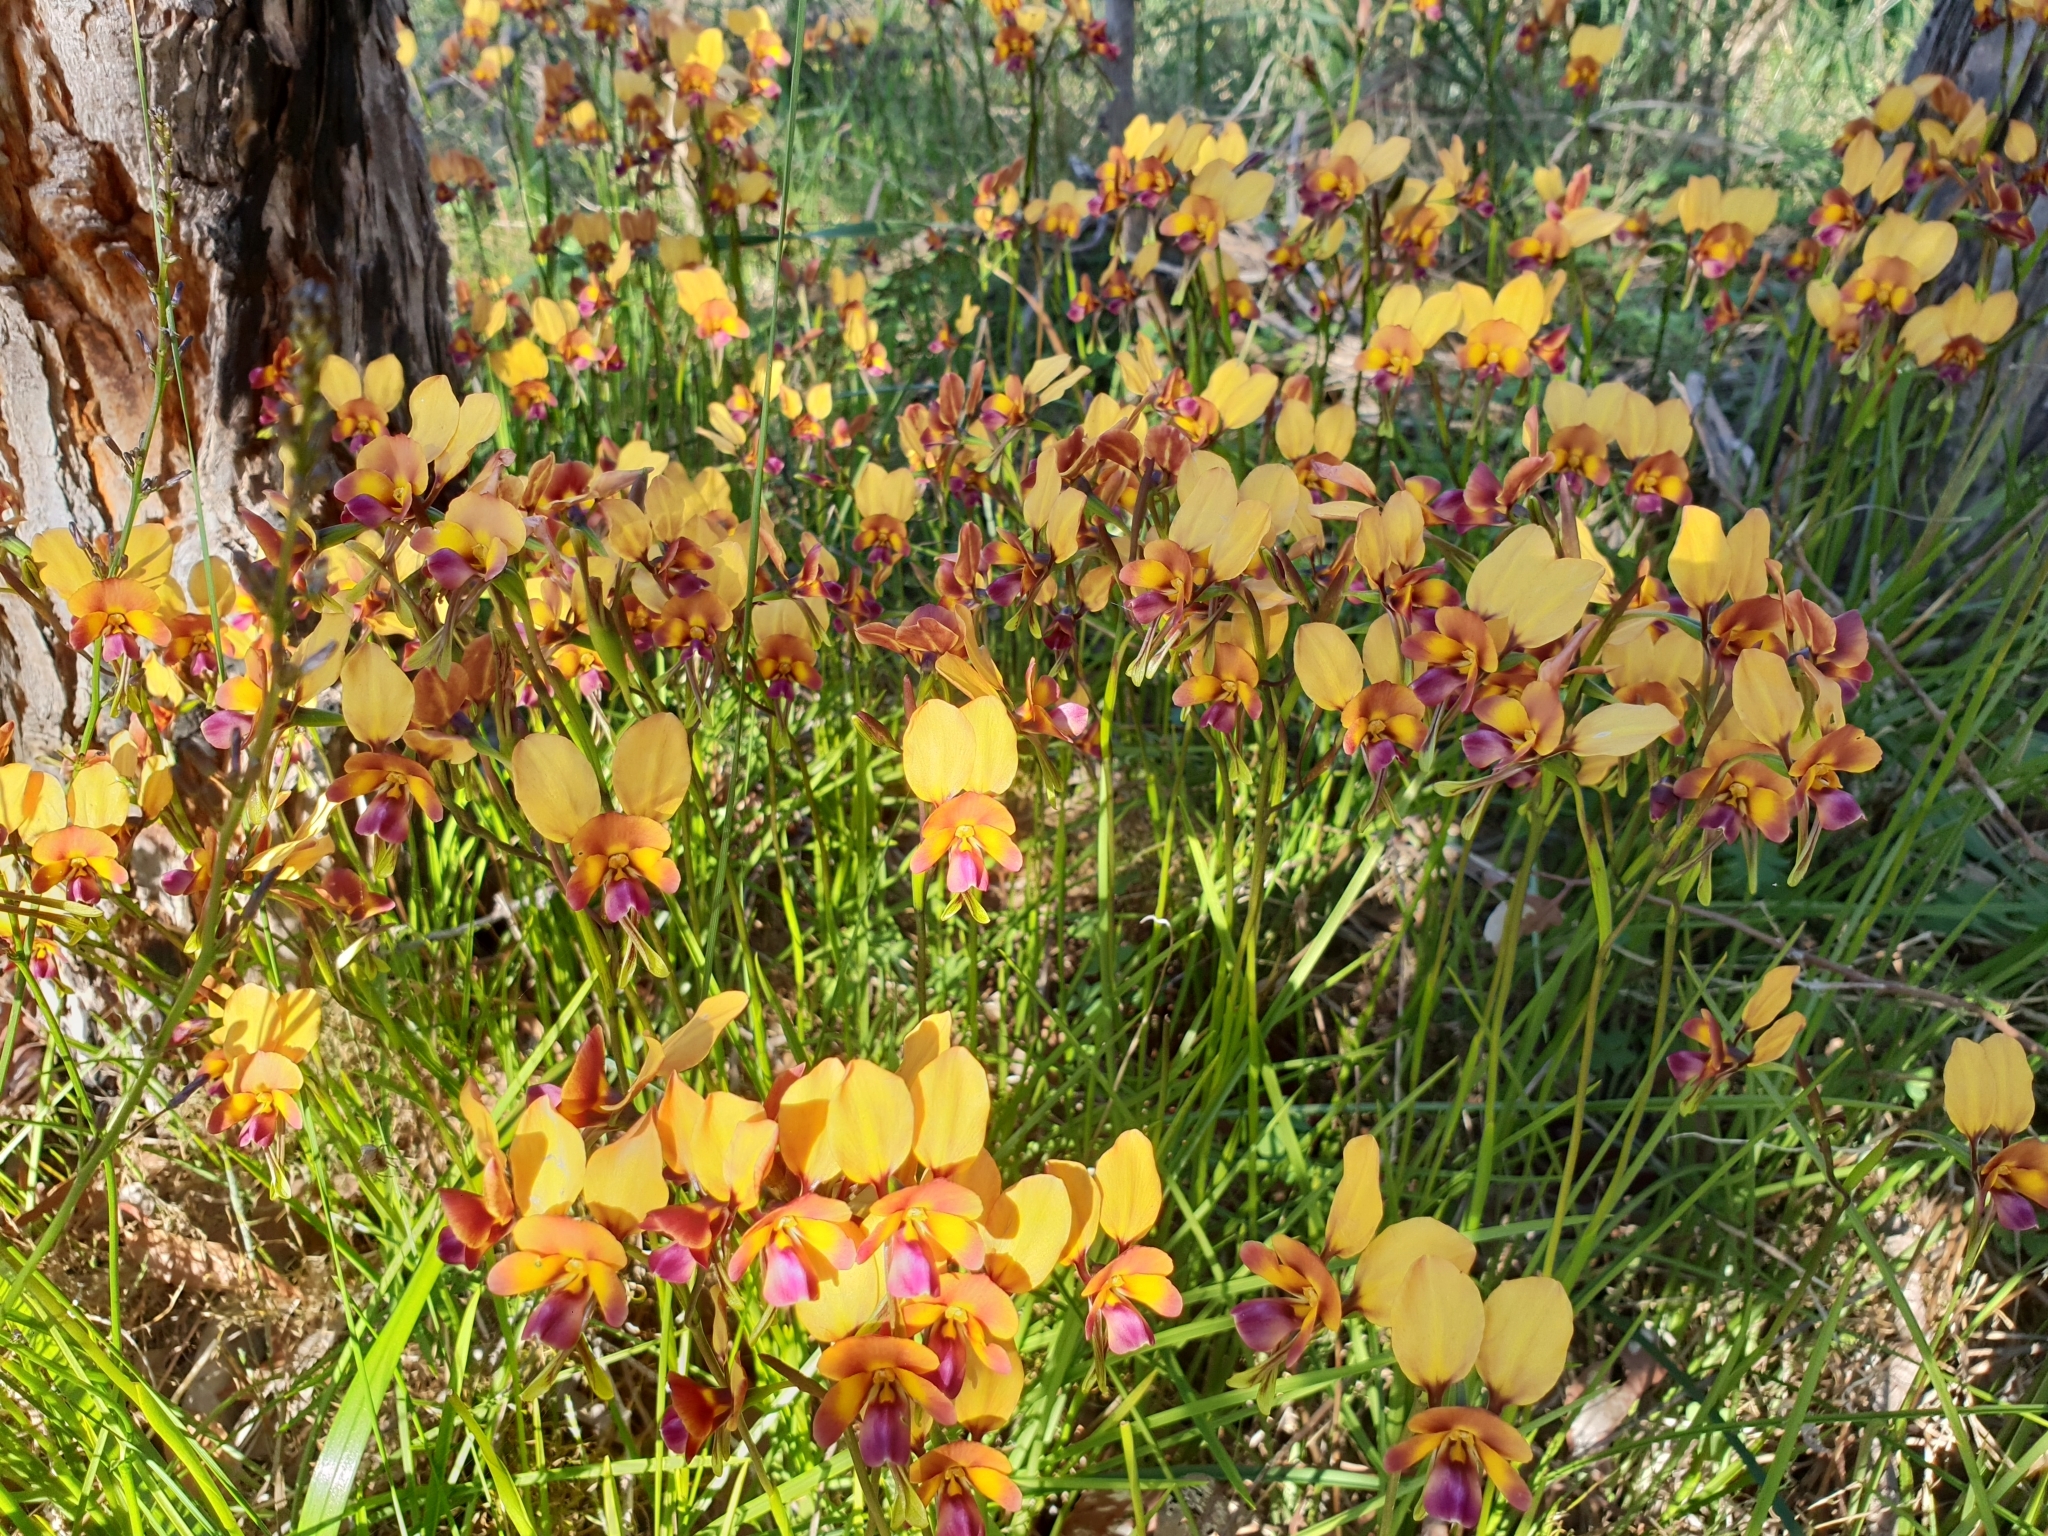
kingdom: Plantae
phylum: Tracheophyta
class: Liliopsida
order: Asparagales
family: Orchidaceae
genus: Diuris
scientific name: Diuris magnifica
